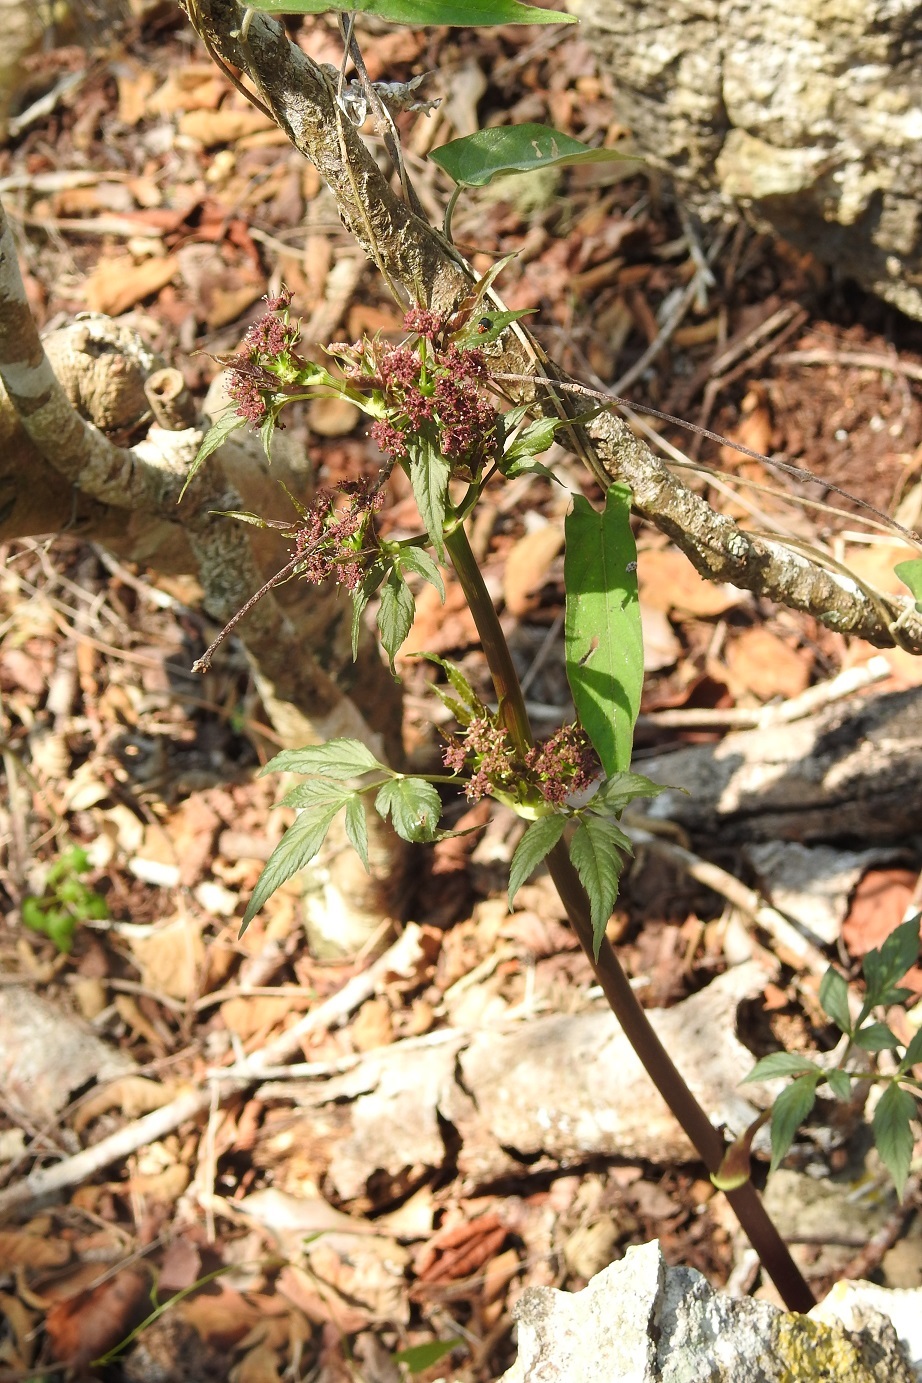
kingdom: Plantae
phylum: Tracheophyta
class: Magnoliopsida
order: Apiales
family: Apiaceae
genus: Arracacia
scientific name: Arracacia nelsonii
